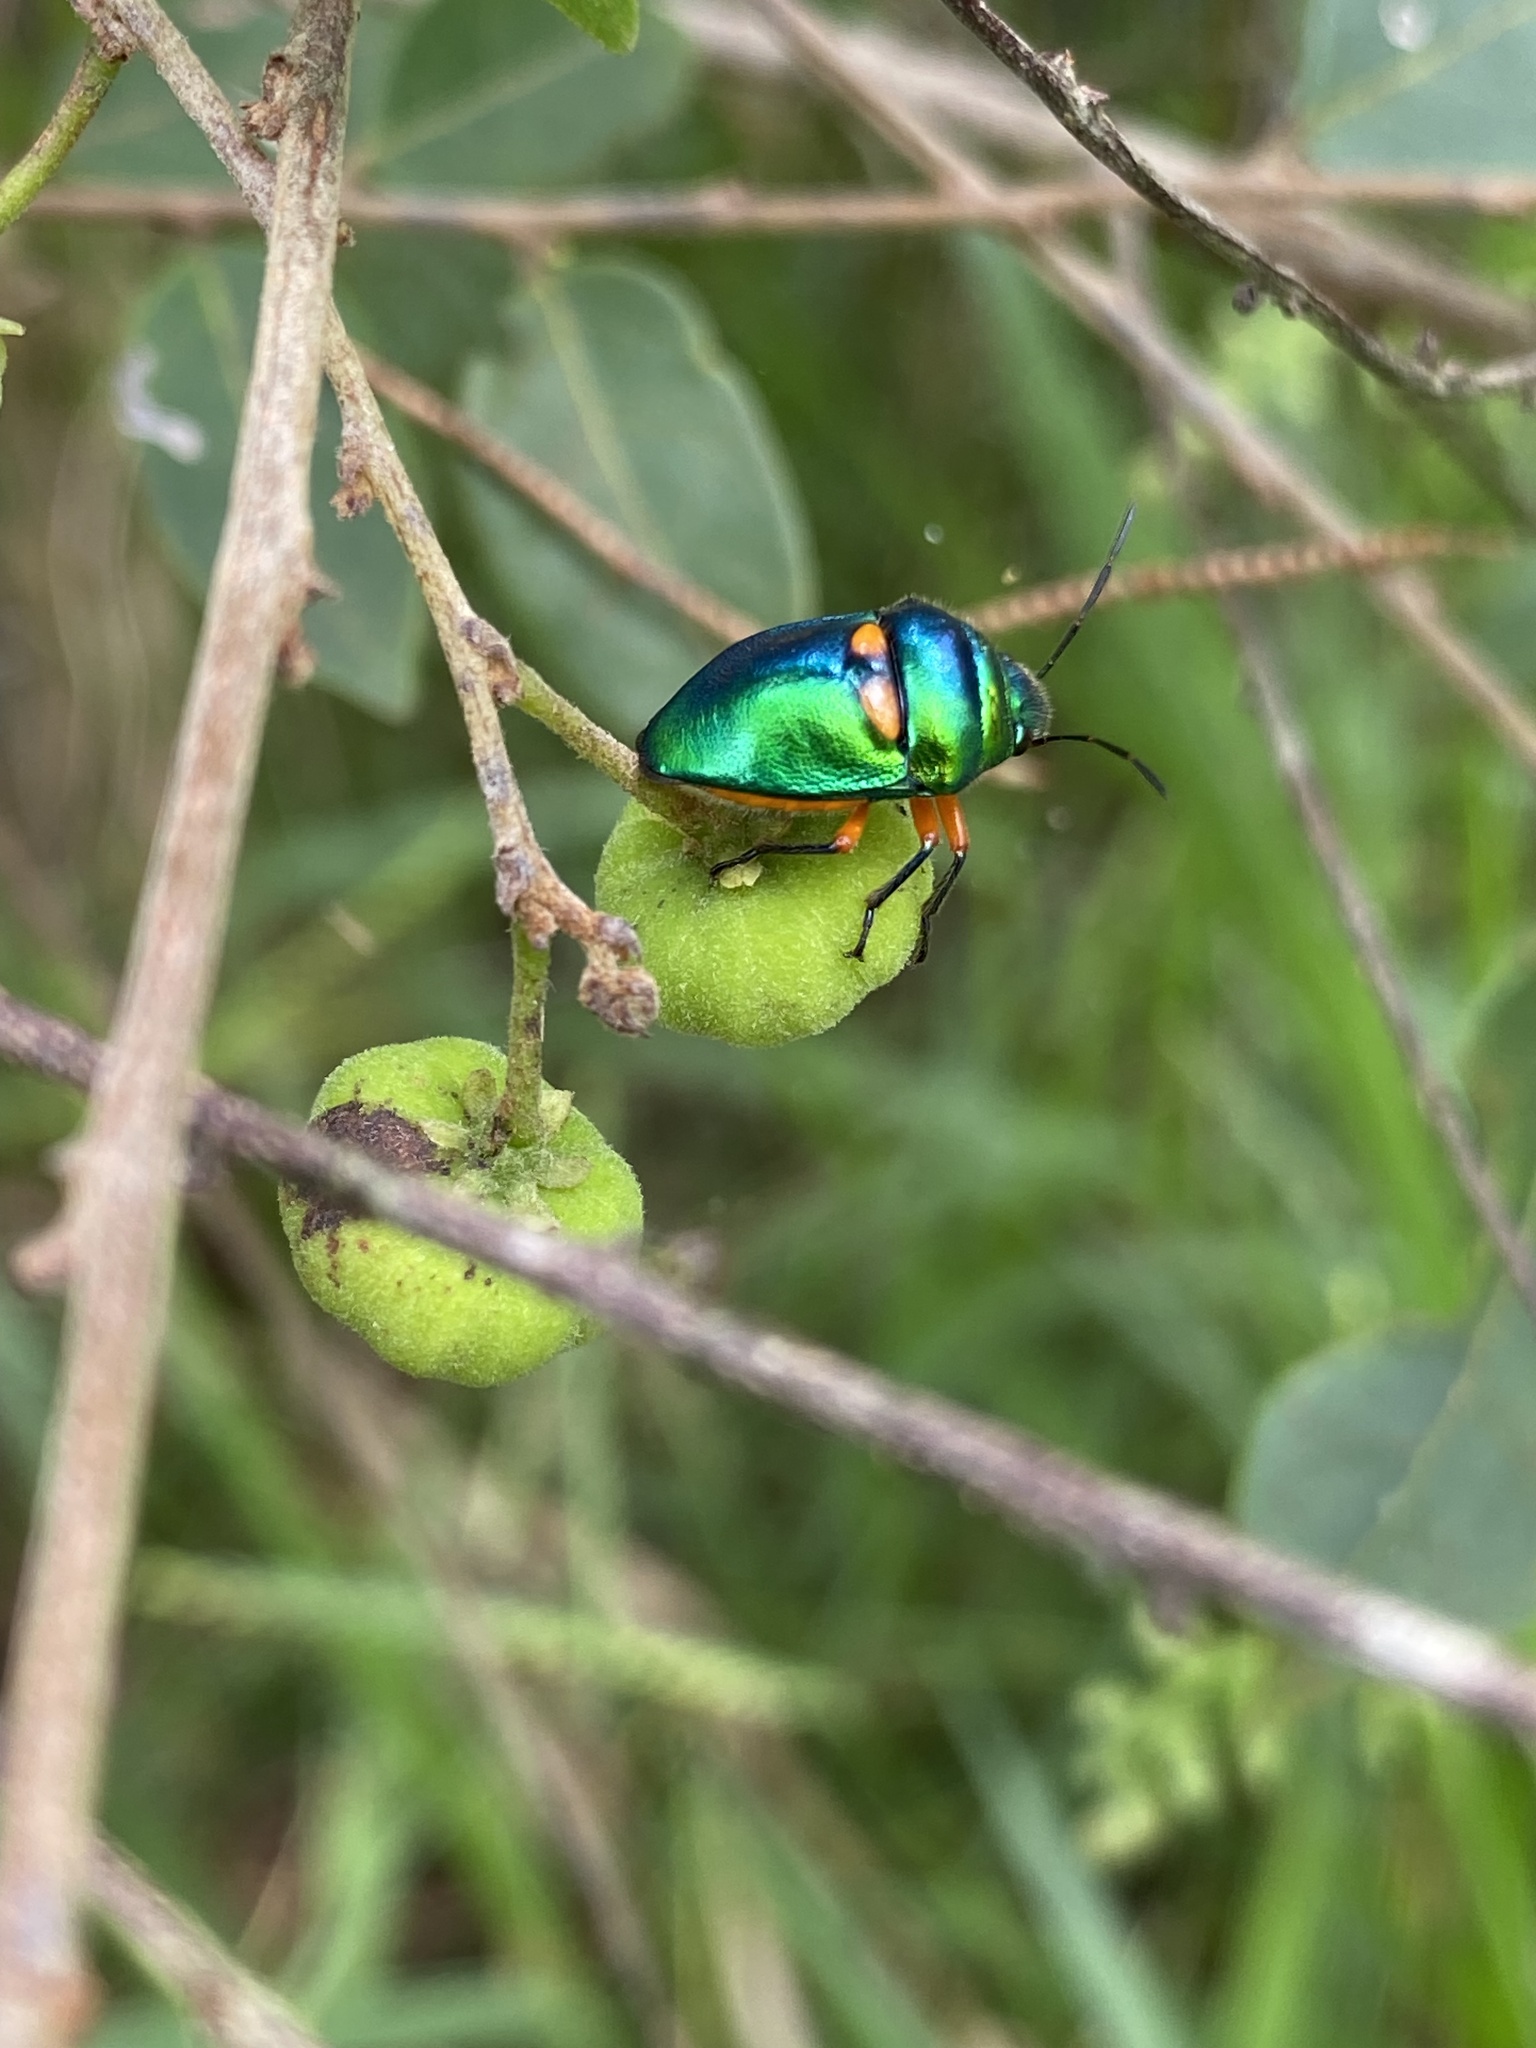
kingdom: Animalia
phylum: Arthropoda
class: Insecta
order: Hemiptera
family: Scutelleridae
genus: Lampromicra
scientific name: Lampromicra senator
